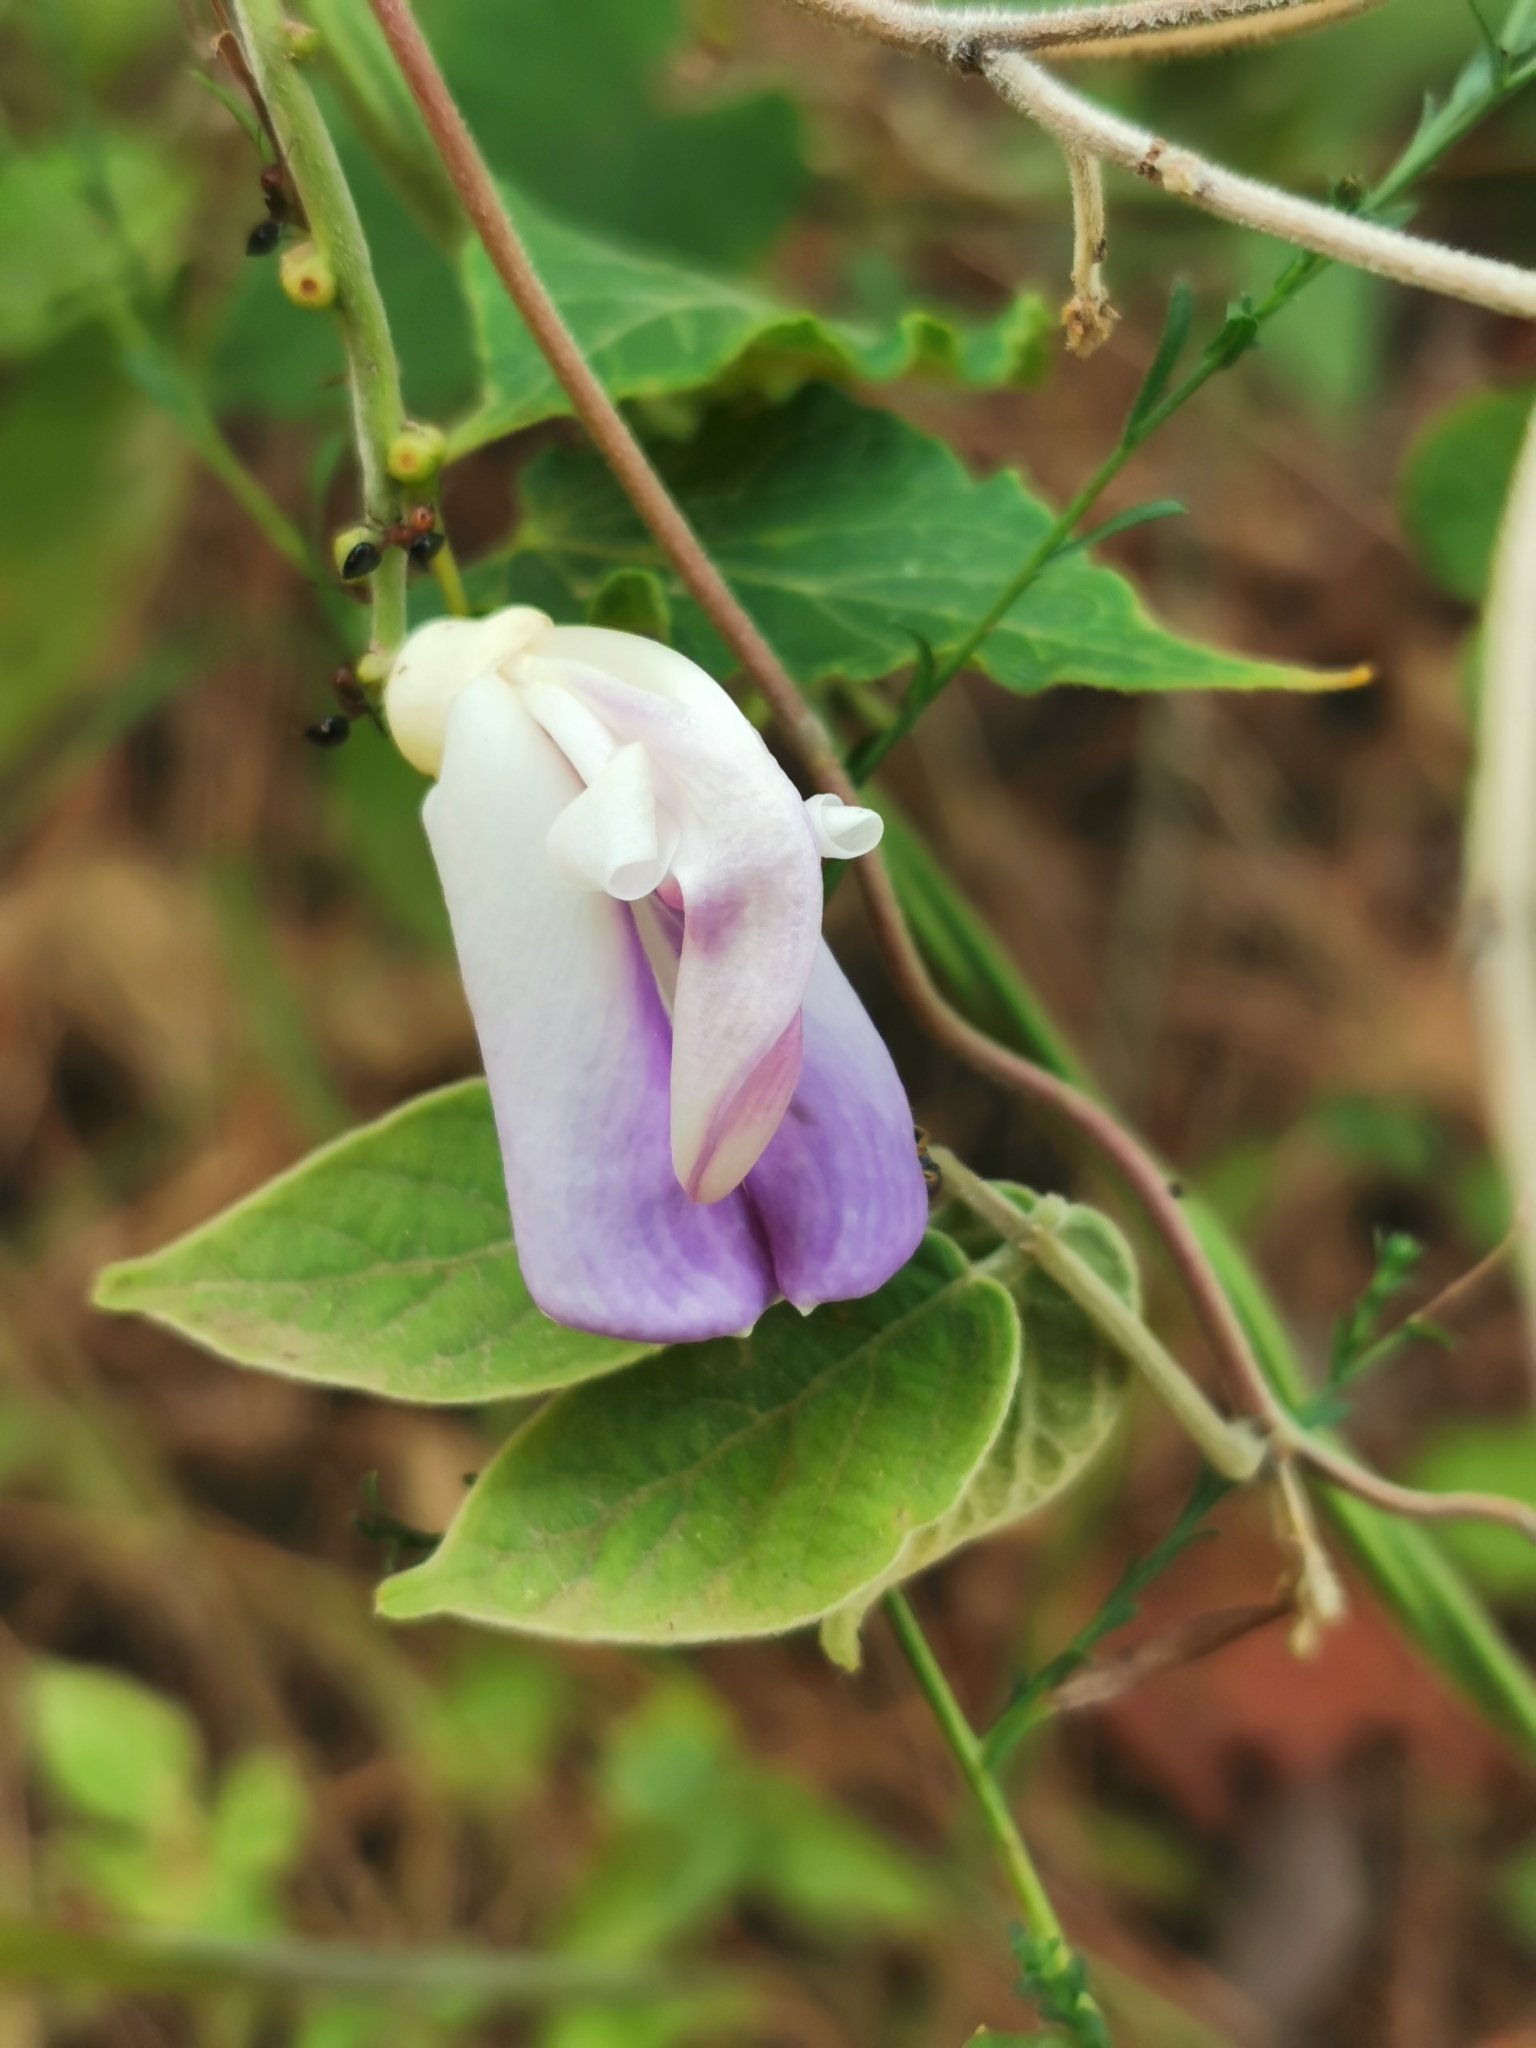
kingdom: Plantae
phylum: Tracheophyta
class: Magnoliopsida
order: Fabales
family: Fabaceae
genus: Canavalia
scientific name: Canavalia septentrionalis
